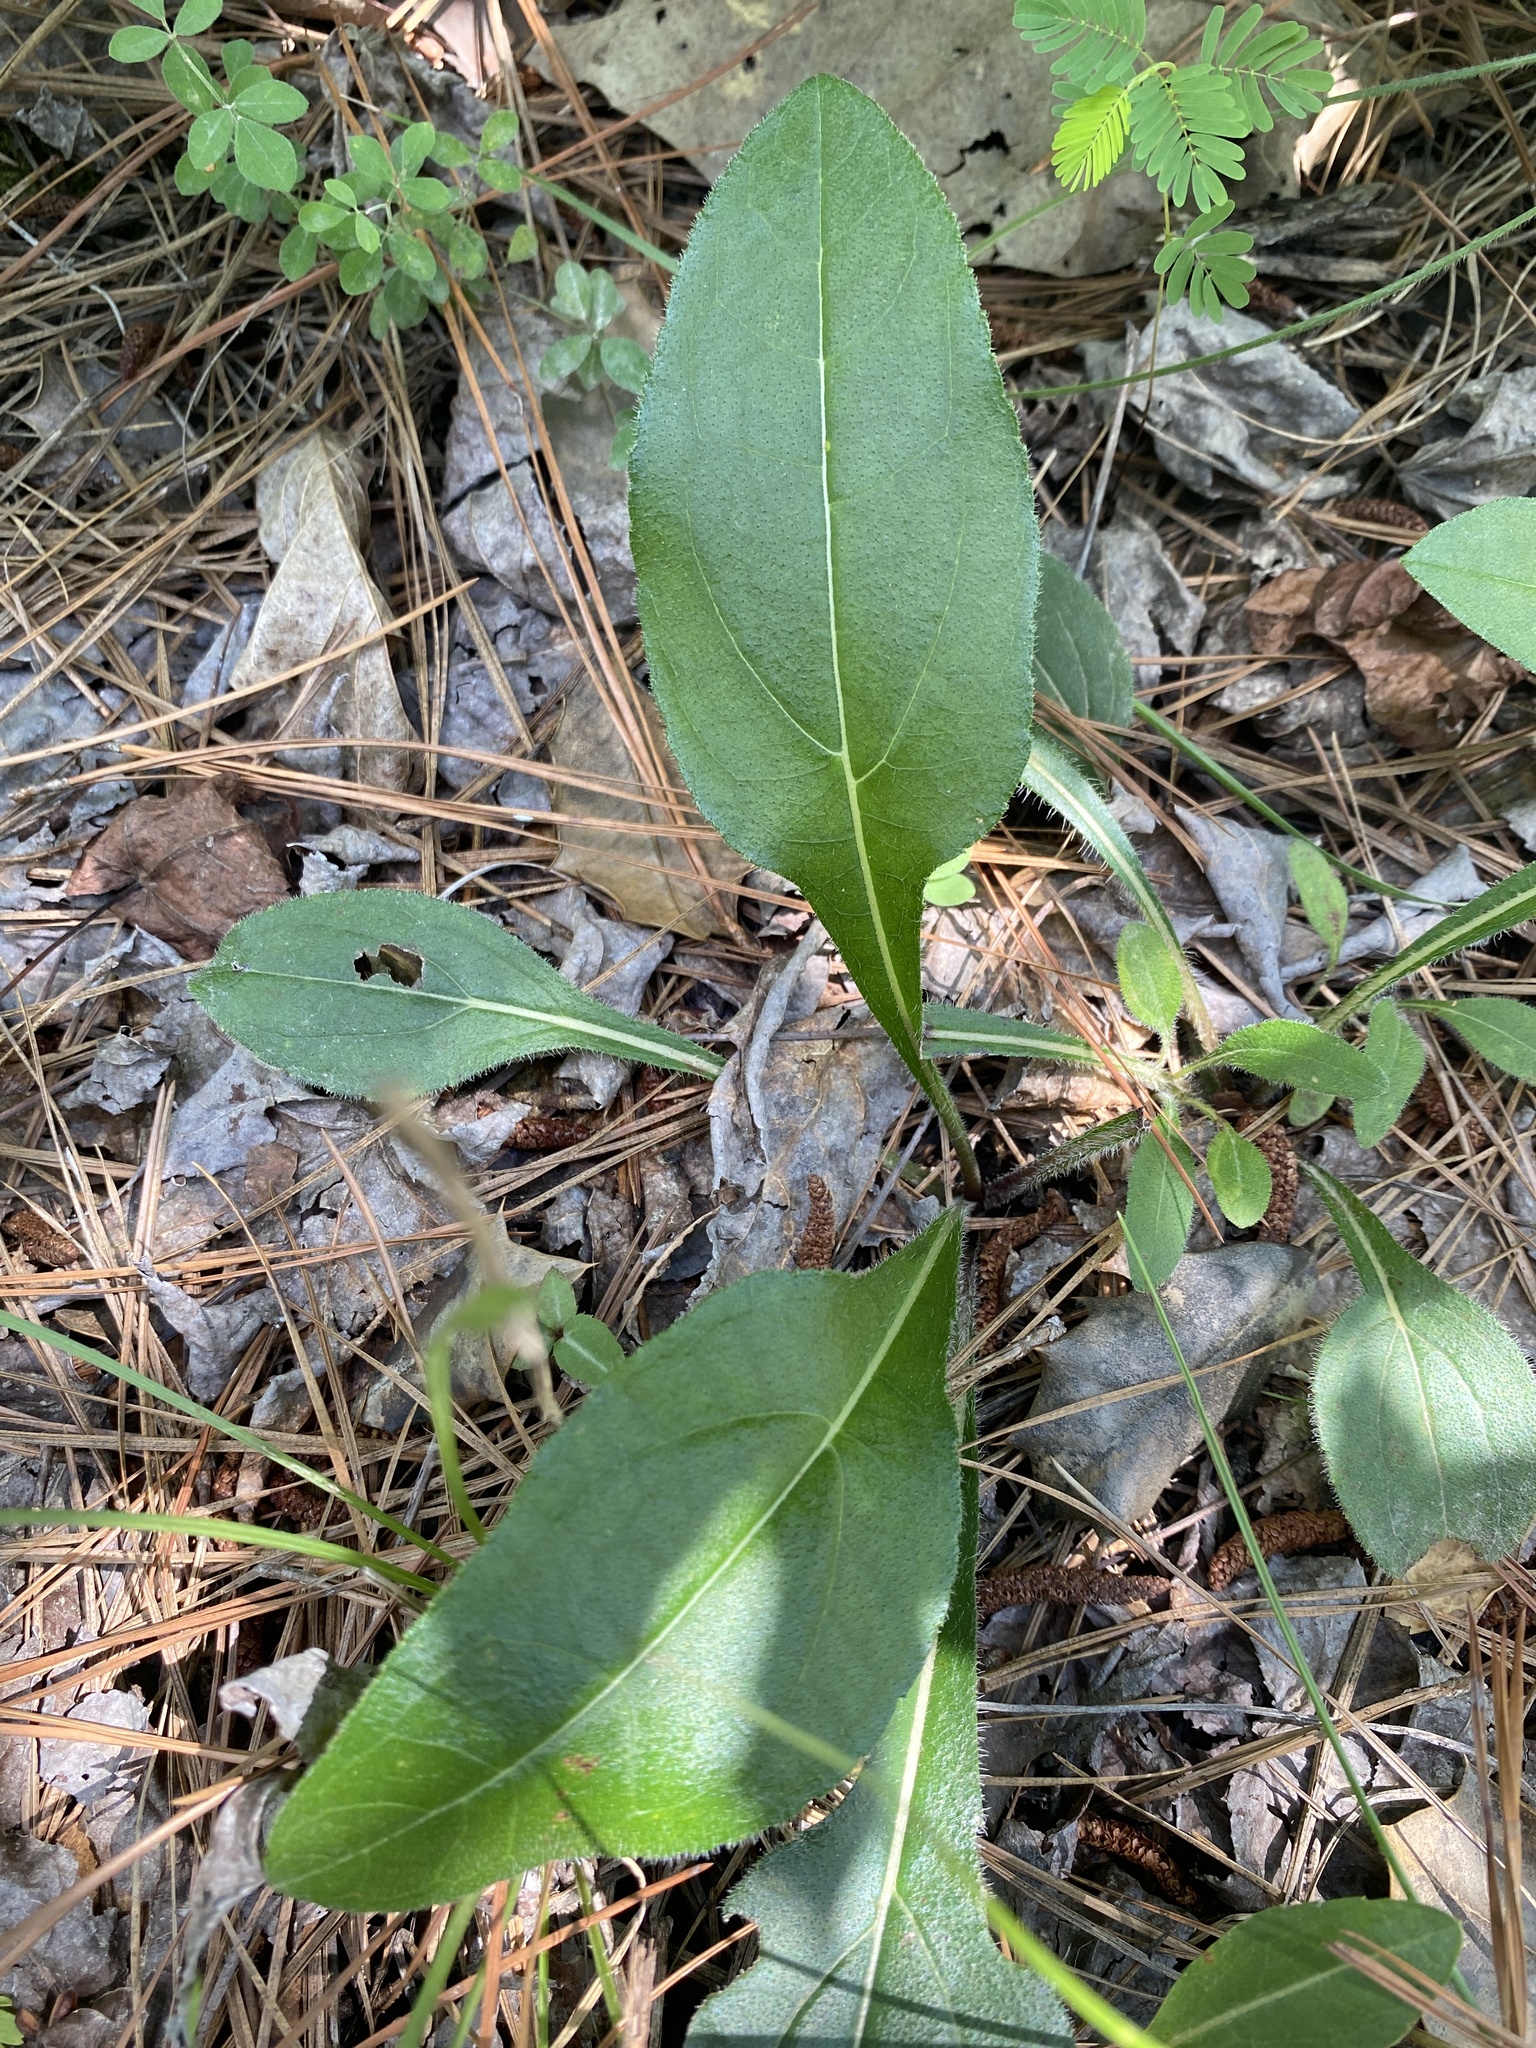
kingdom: Plantae
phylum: Tracheophyta
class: Magnoliopsida
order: Asterales
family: Asteraceae
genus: Helianthus
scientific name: Helianthus atrorubens
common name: Dark-eyed sunflower
